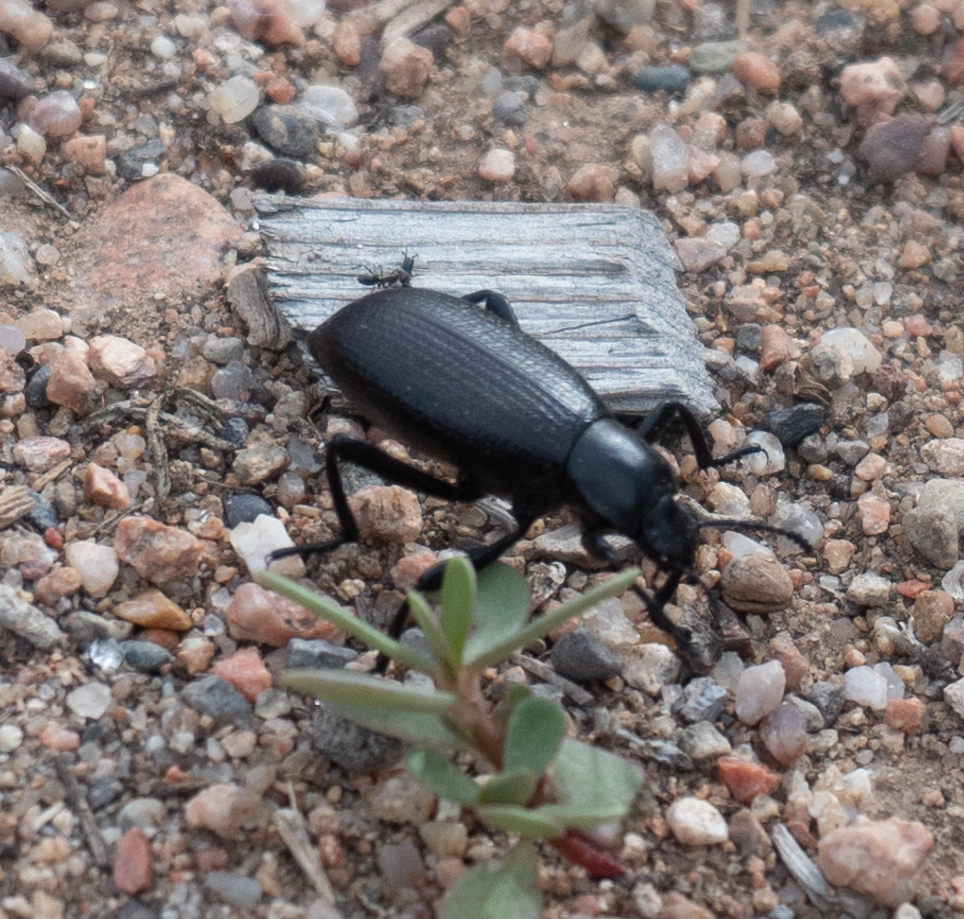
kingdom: Animalia
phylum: Arthropoda
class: Insecta
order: Coleoptera
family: Tenebrionidae
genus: Eleodes
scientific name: Eleodes sponsa
